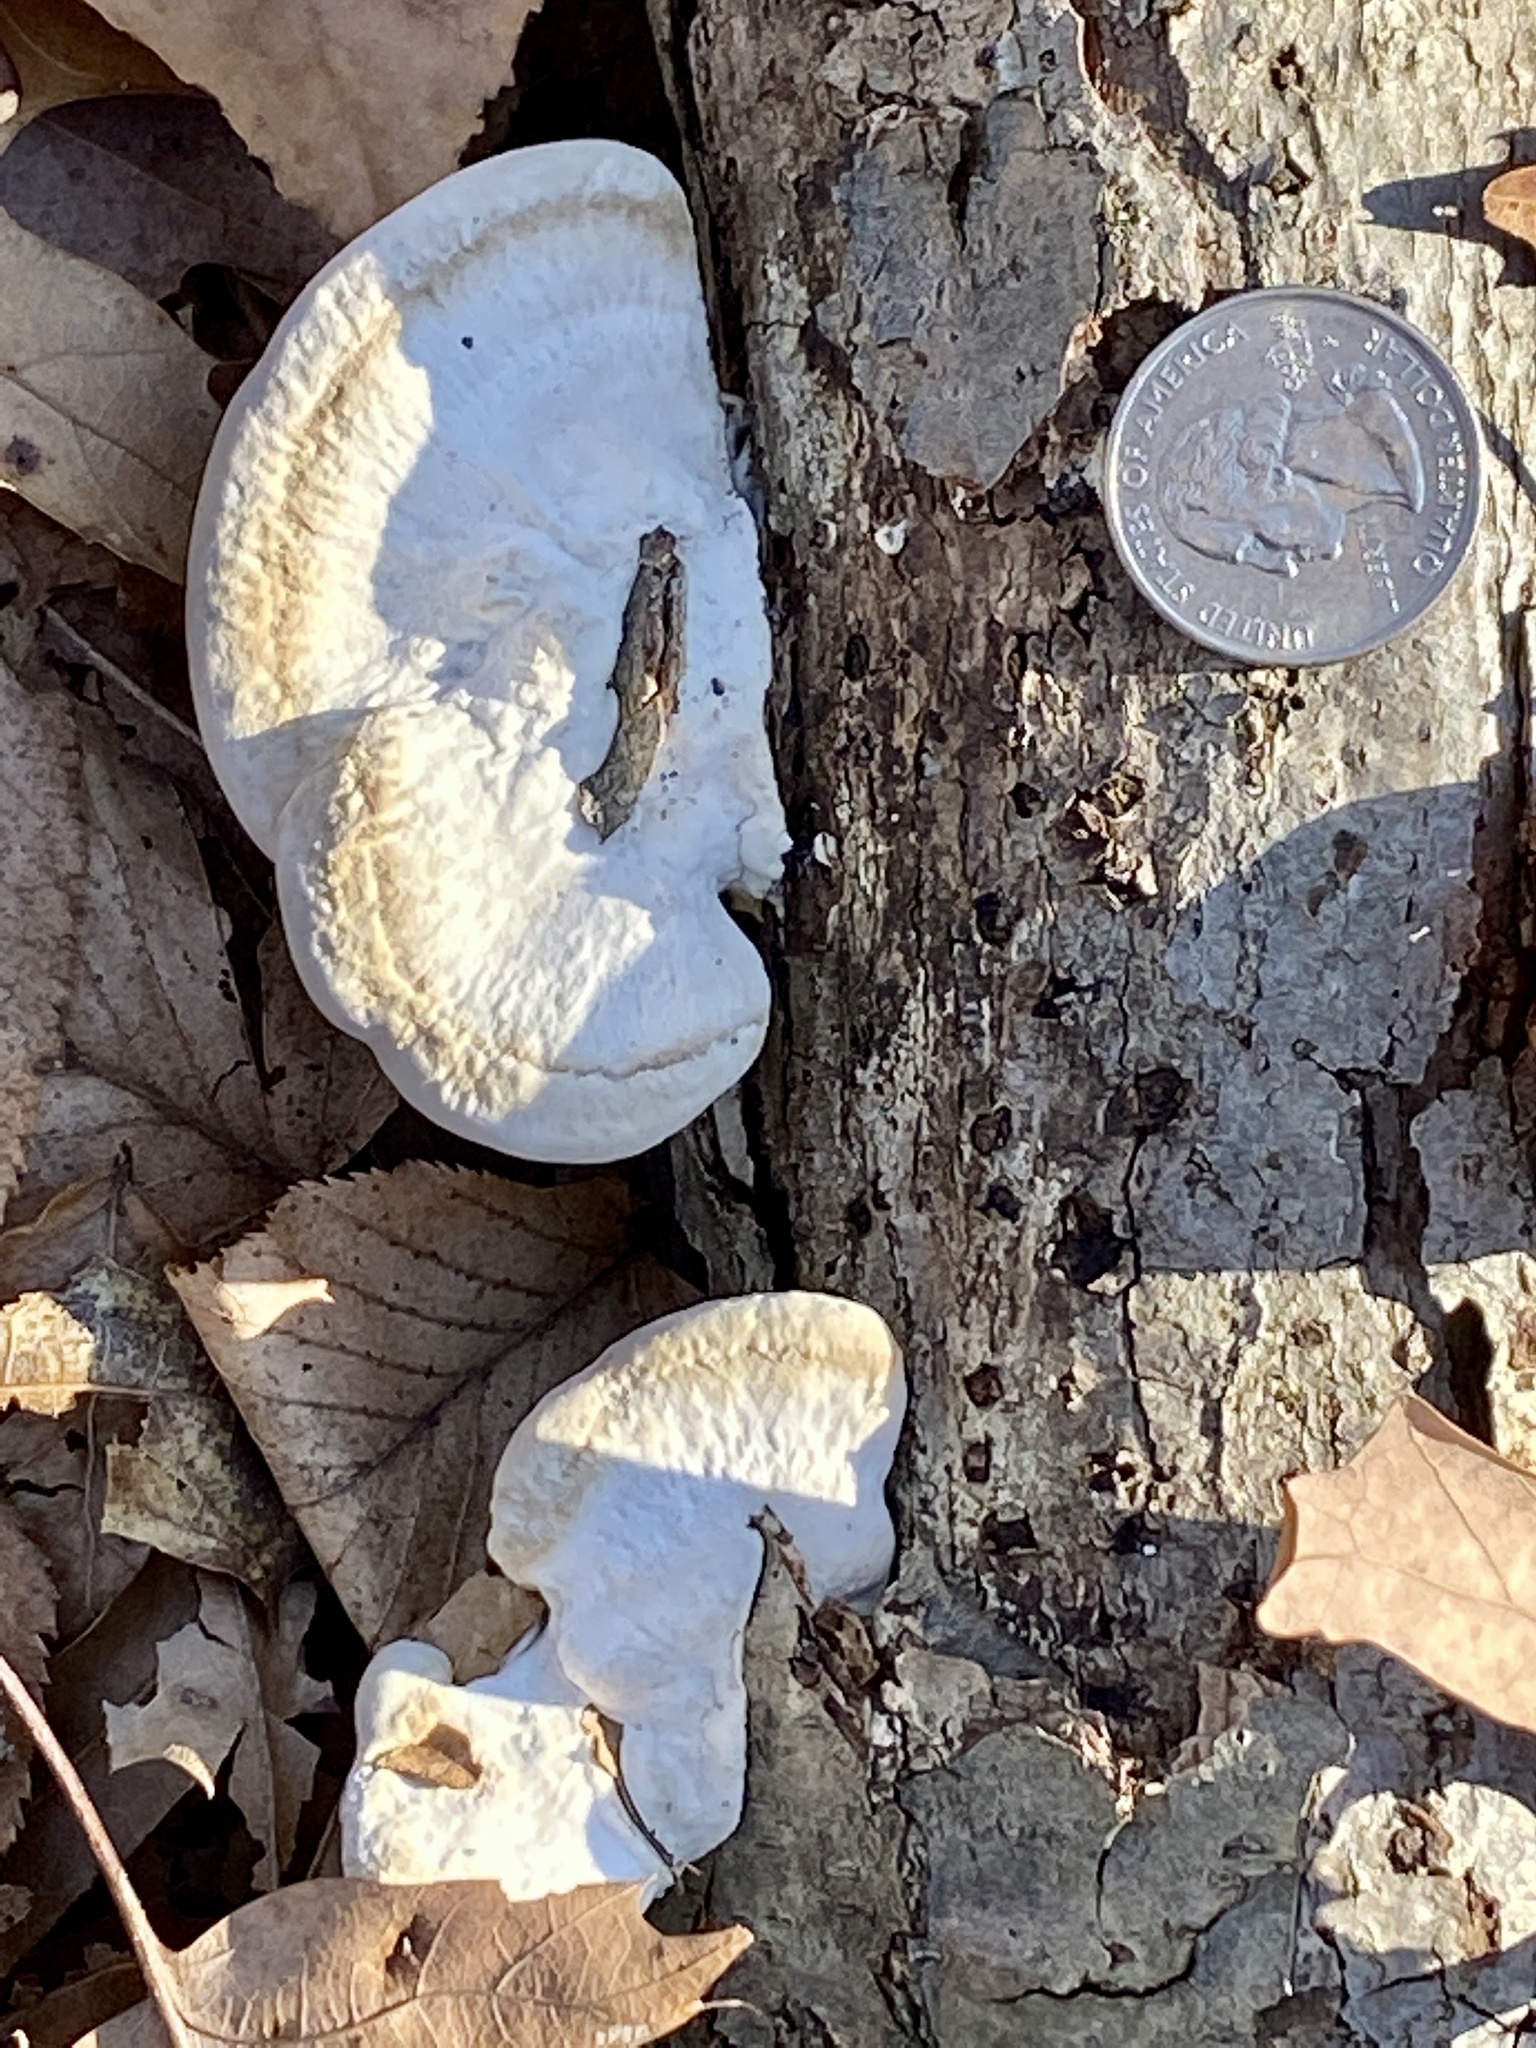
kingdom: Fungi
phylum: Basidiomycota
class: Agaricomycetes
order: Polyporales
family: Polyporaceae
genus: Trametes
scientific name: Trametes lactinea
